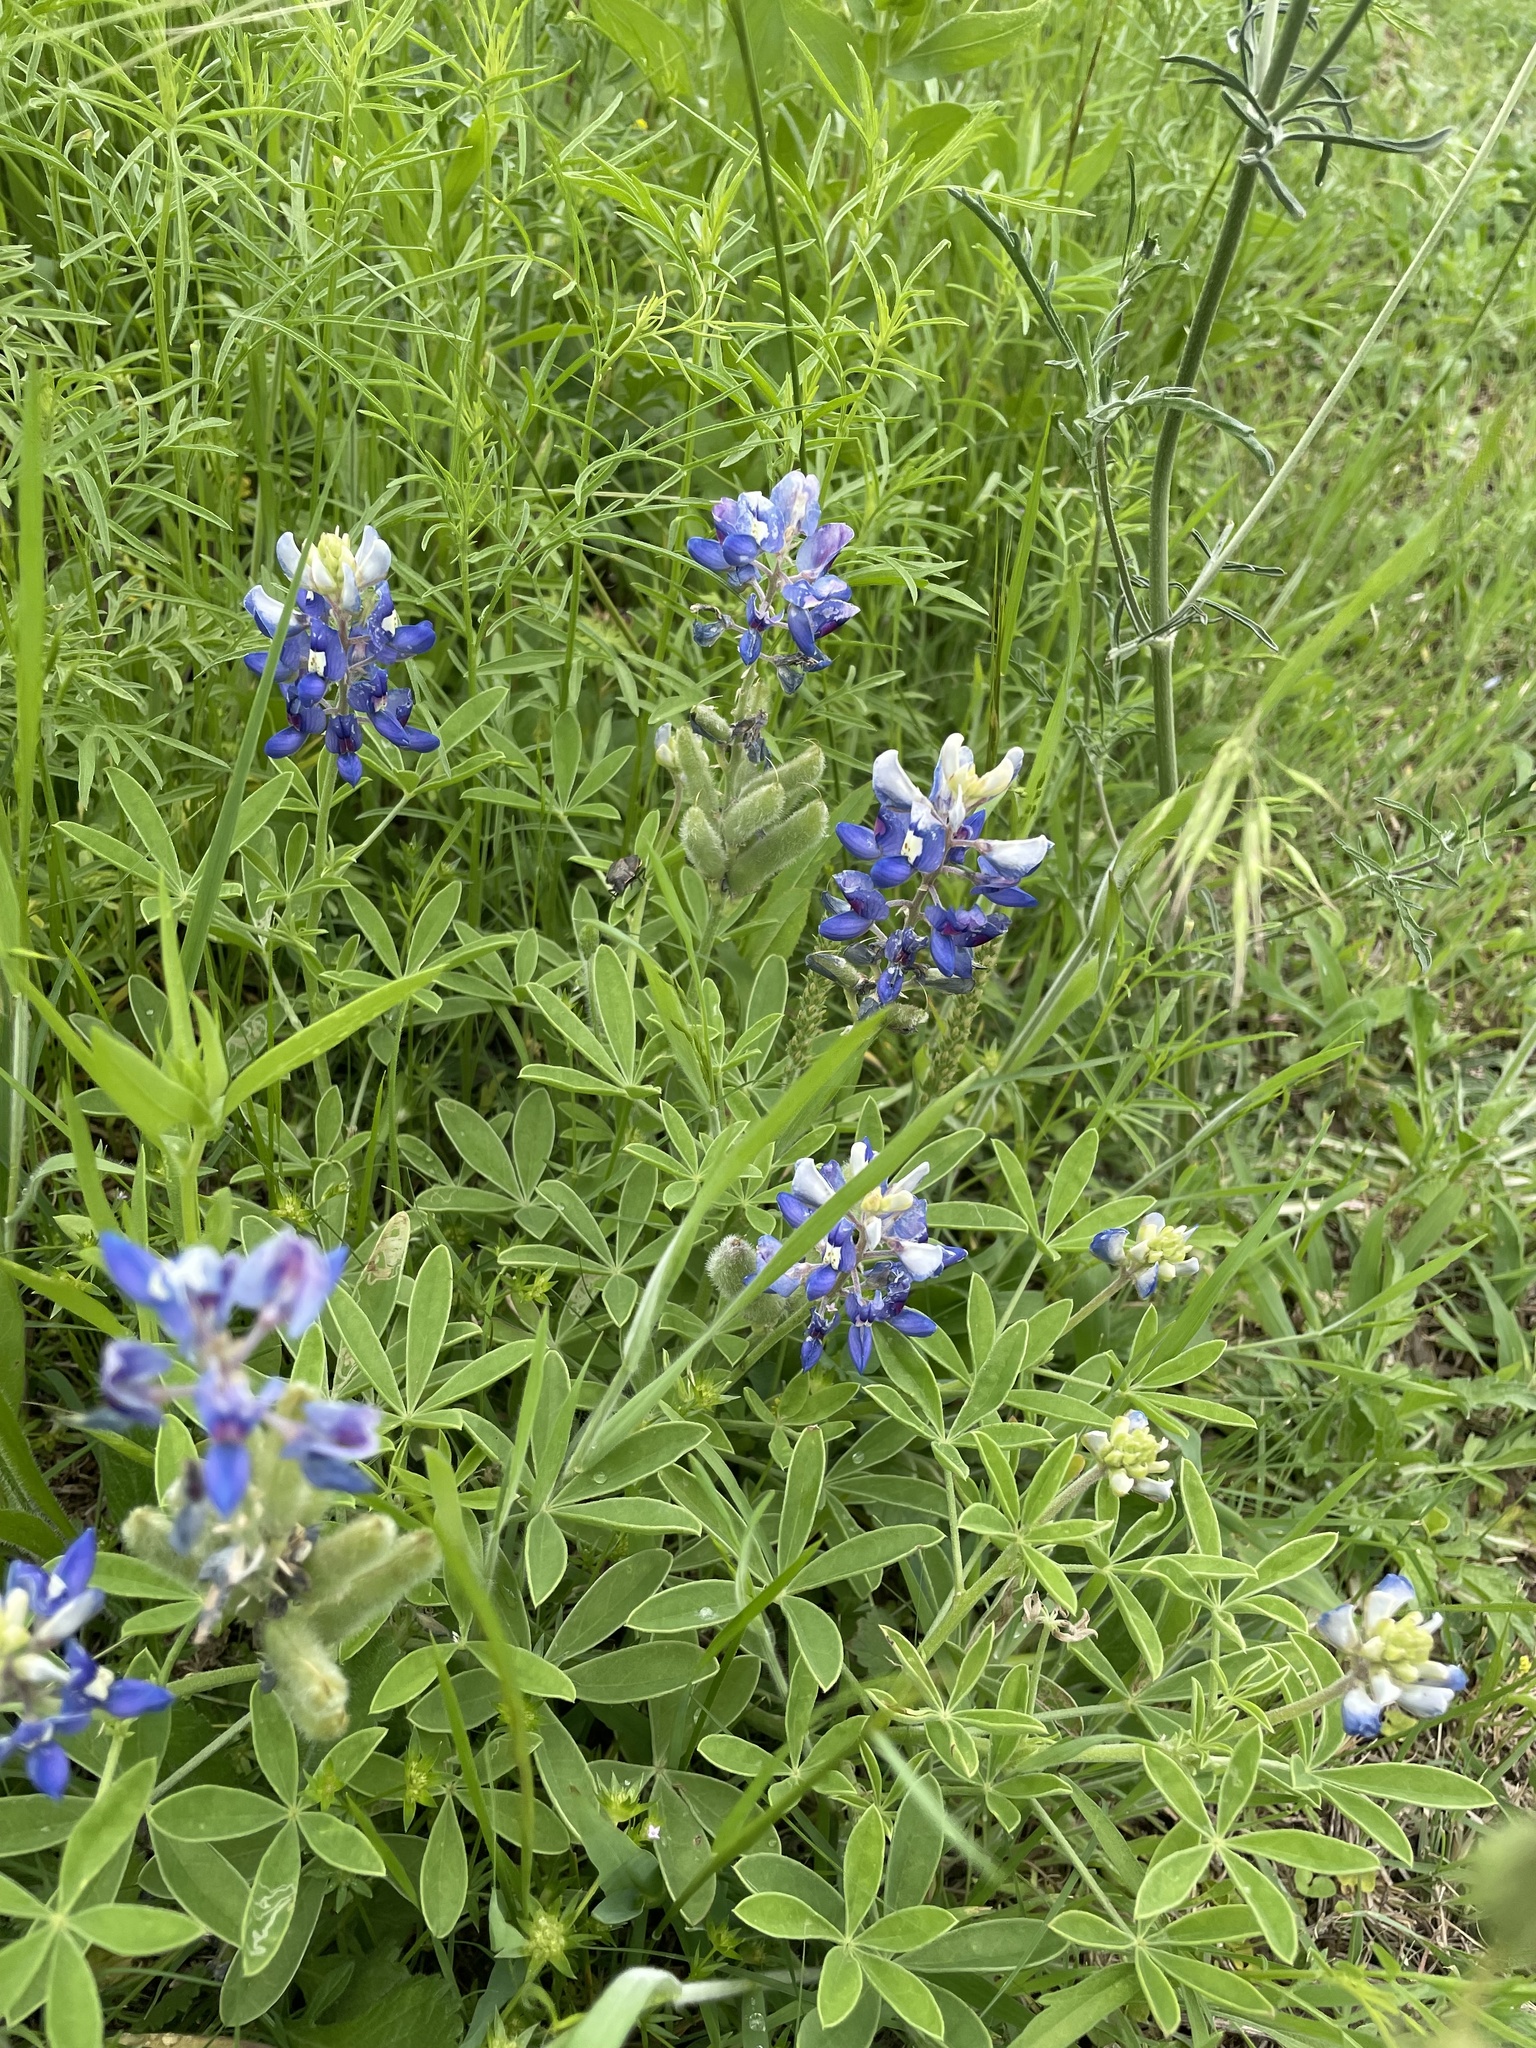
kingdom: Plantae
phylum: Tracheophyta
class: Magnoliopsida
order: Fabales
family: Fabaceae
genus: Lupinus
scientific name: Lupinus texensis
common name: Texas bluebonnet
